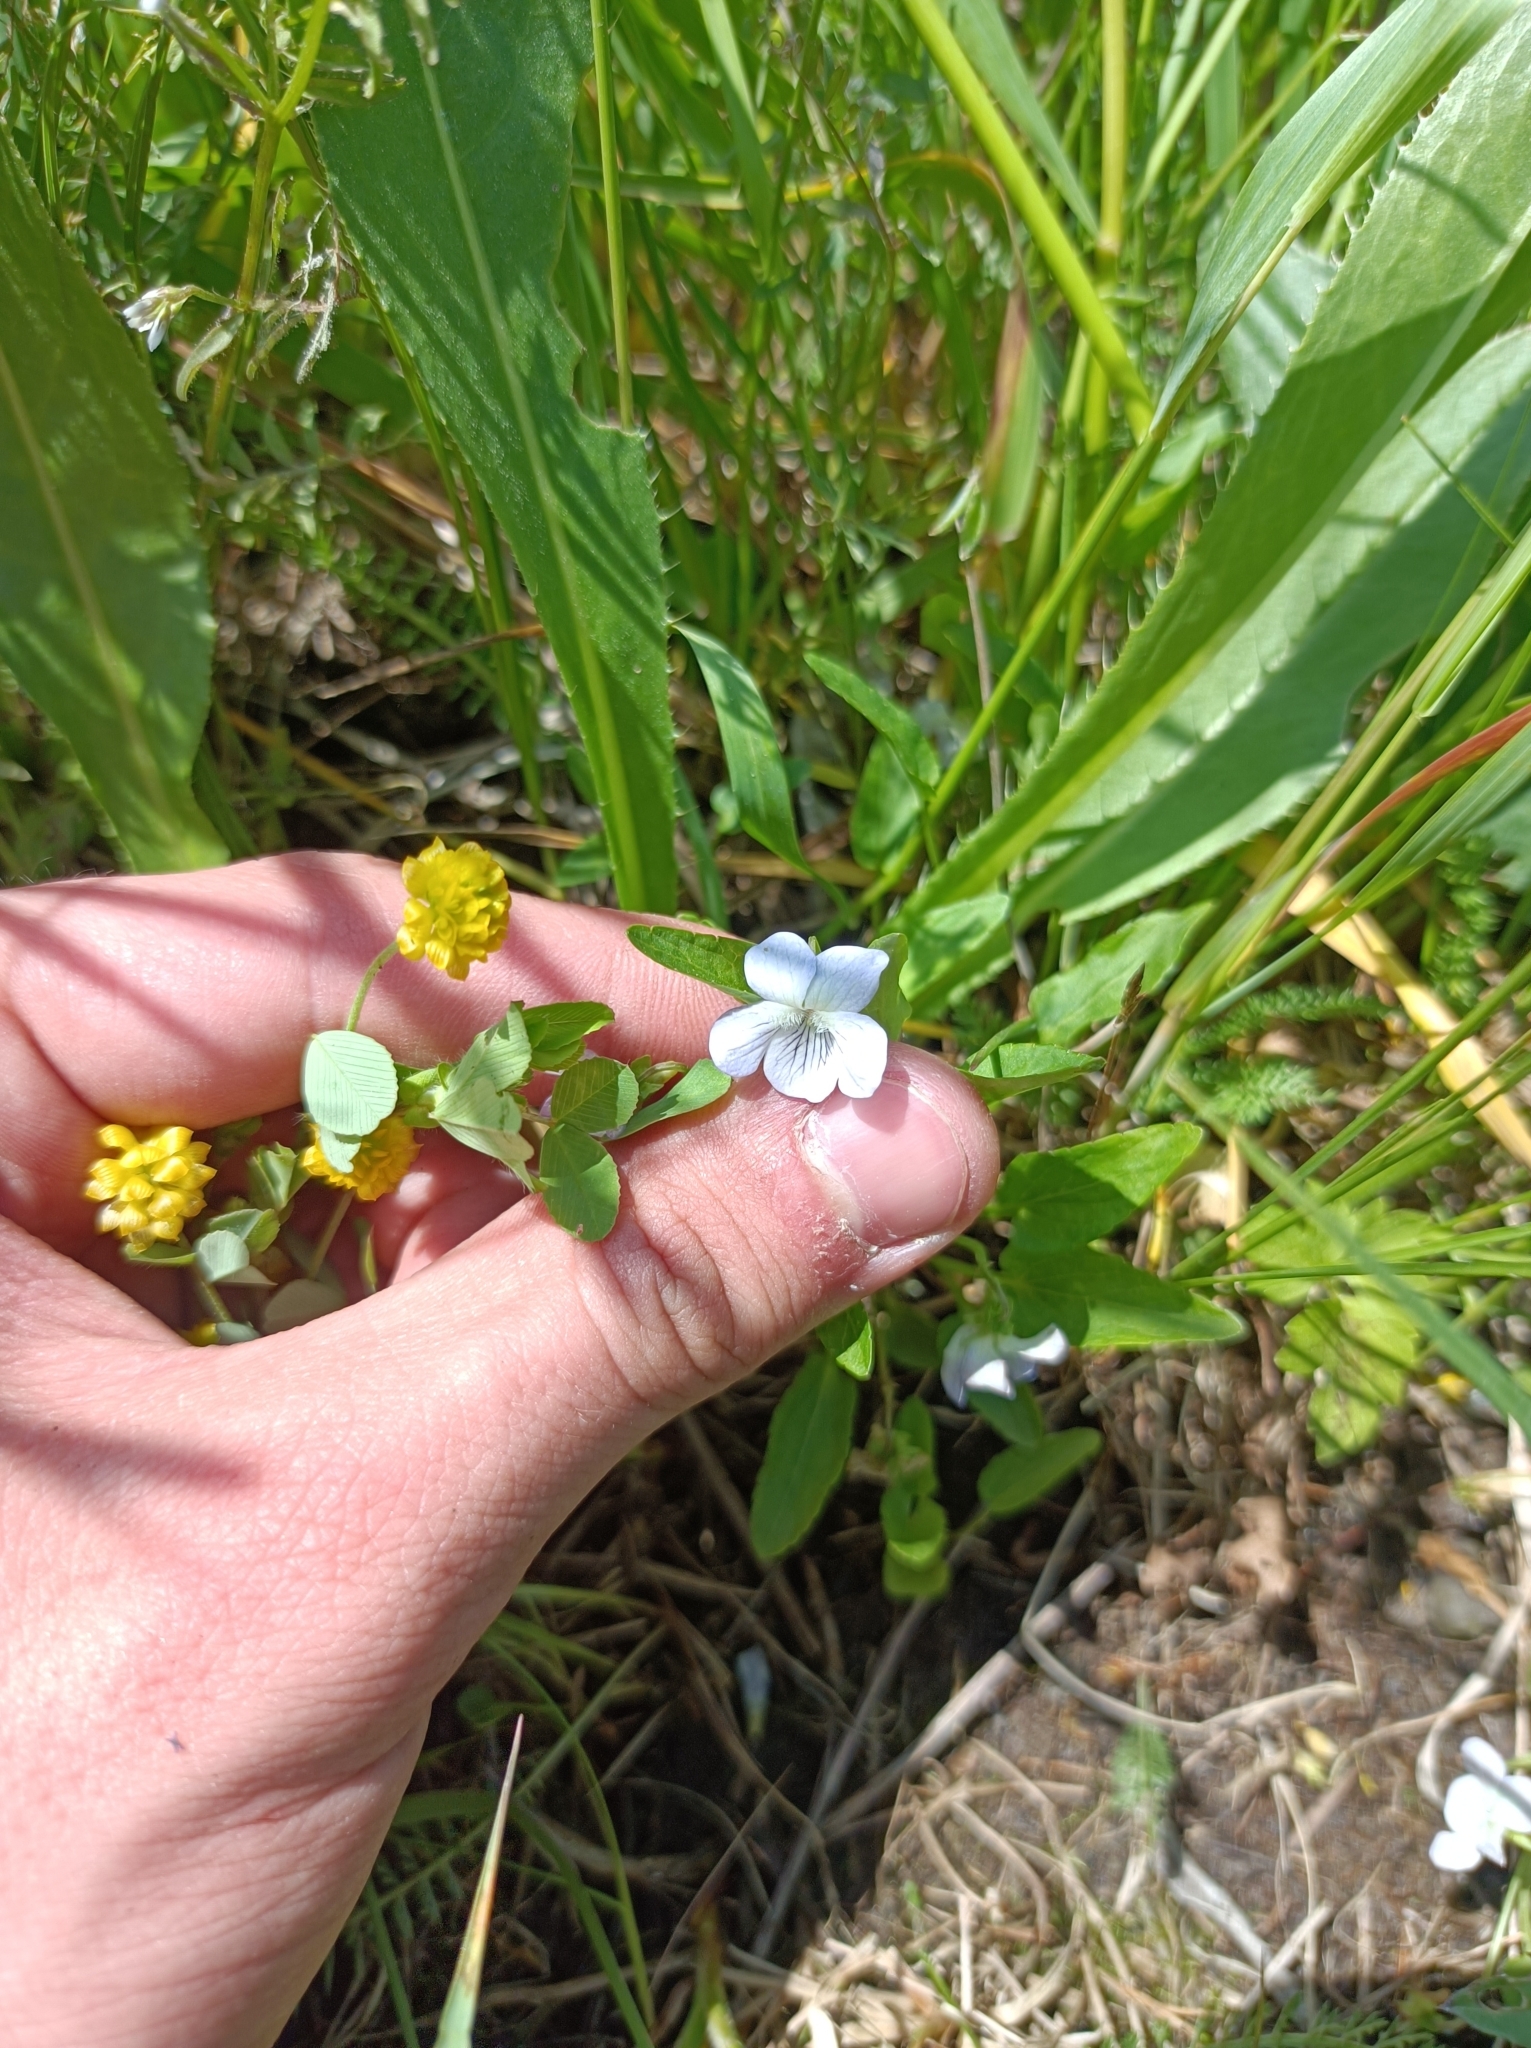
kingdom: Plantae
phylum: Tracheophyta
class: Magnoliopsida
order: Malpighiales
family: Violaceae
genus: Viola
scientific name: Viola stagnina
